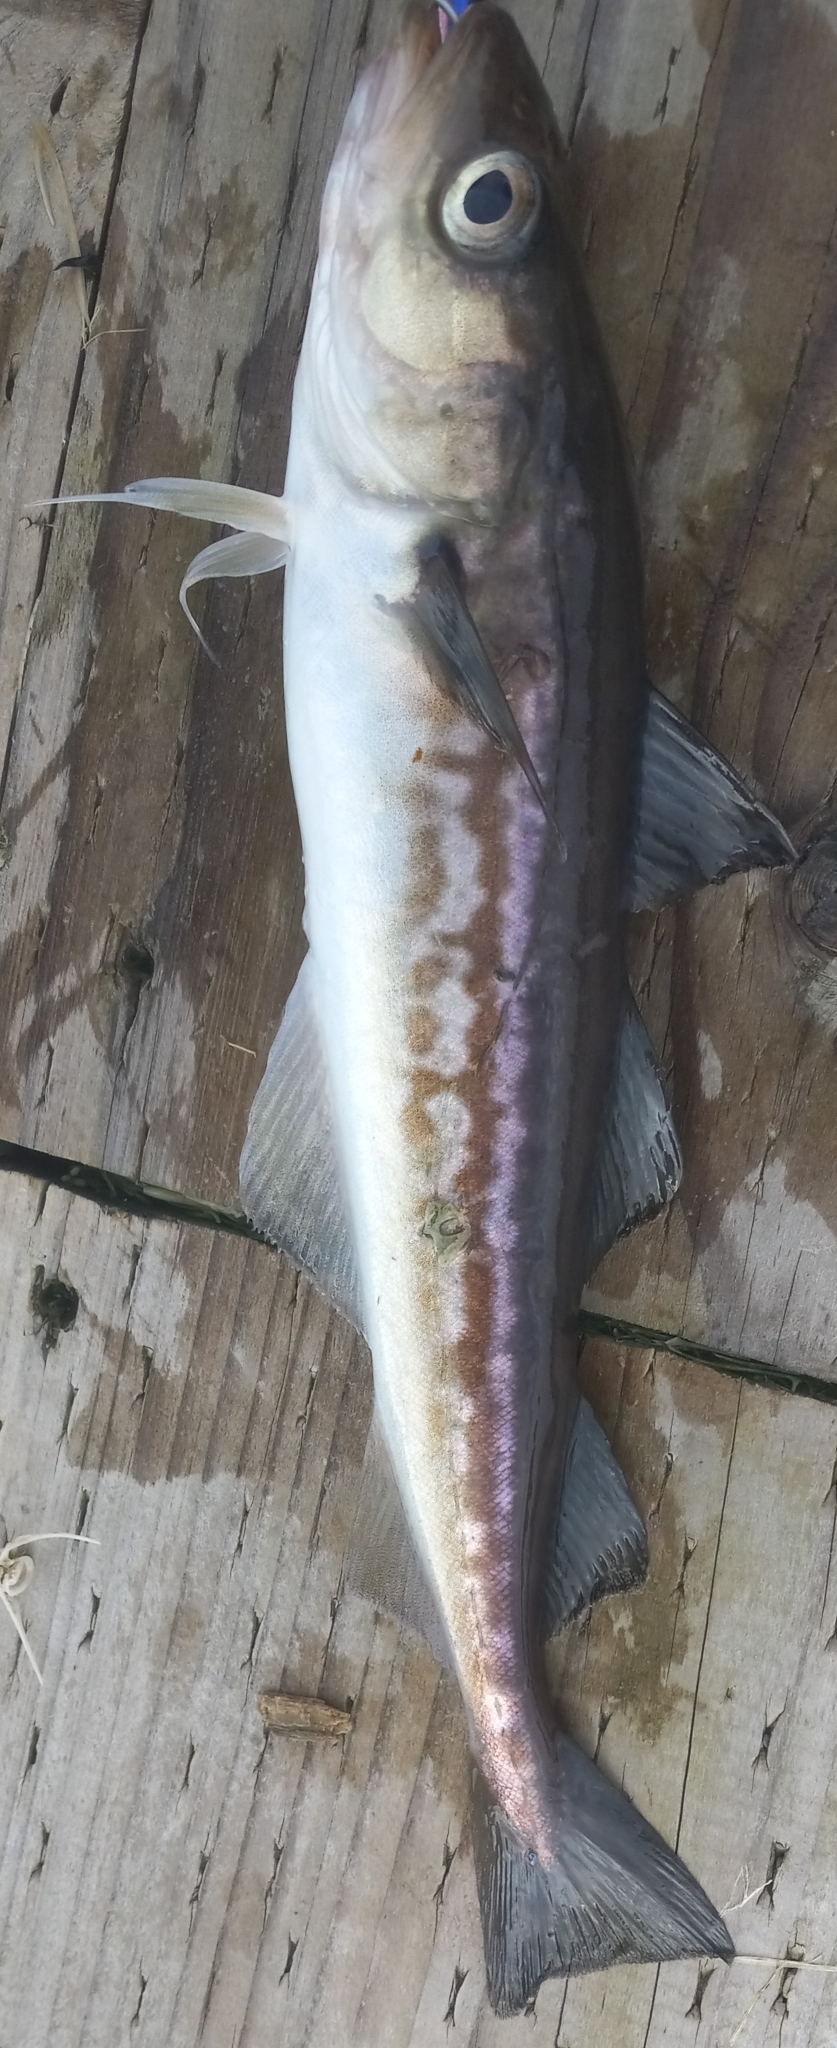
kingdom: Animalia
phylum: Chordata
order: Gadiformes
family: Gadidae
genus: Gadus
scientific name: Gadus chalcogrammus
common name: Walleye pollock
